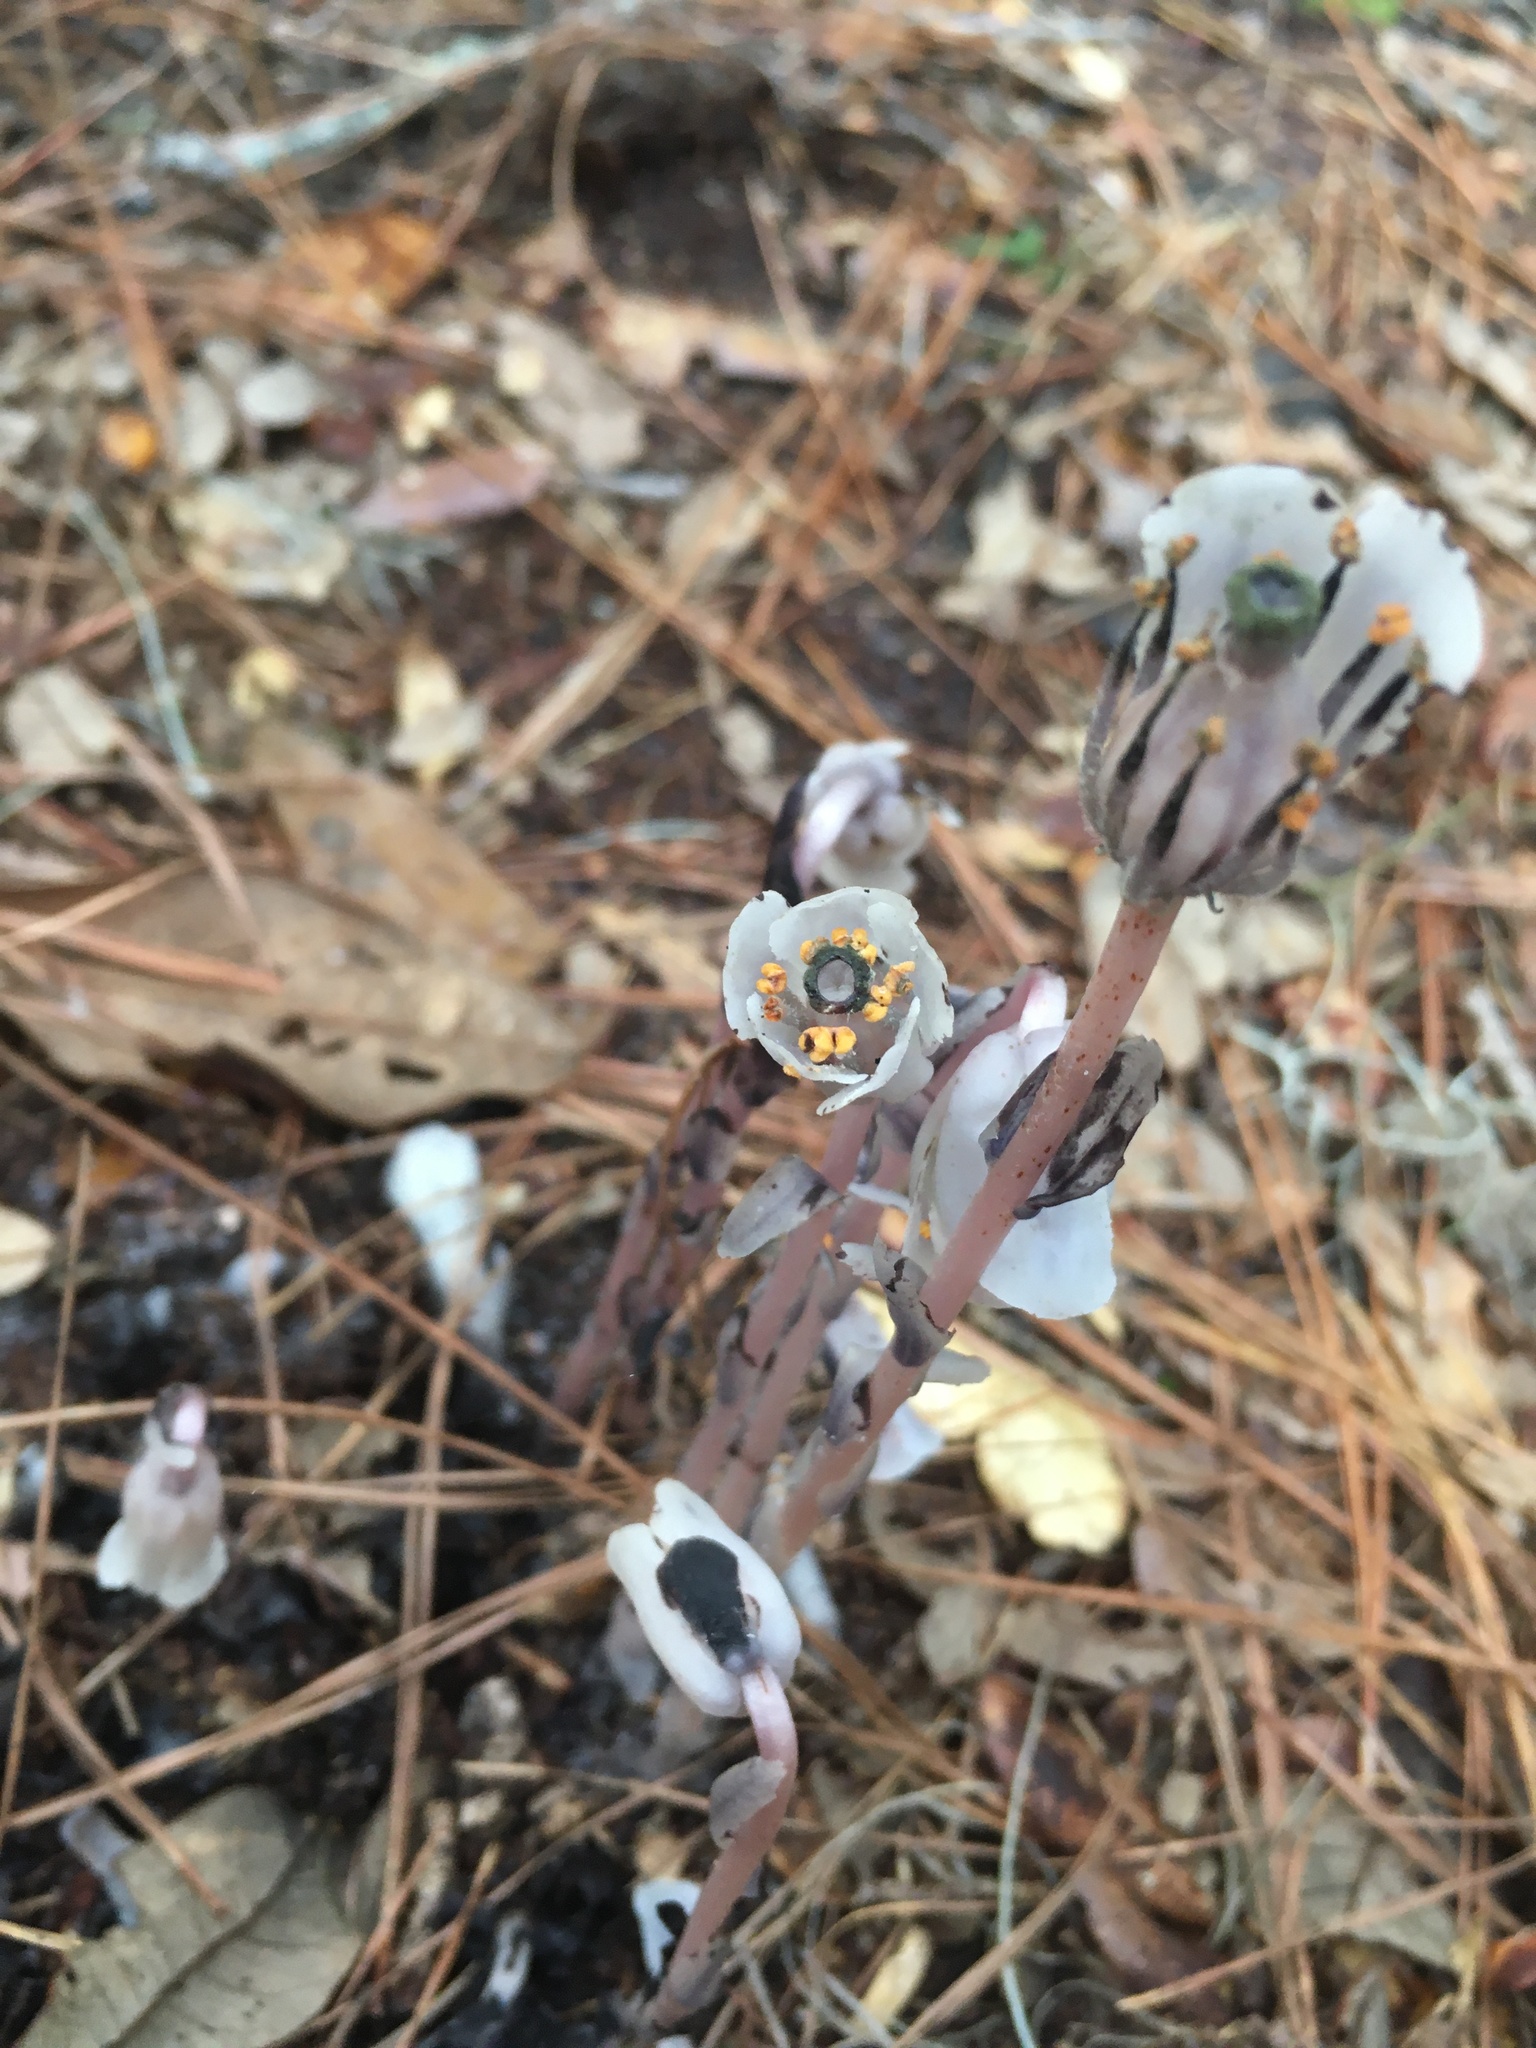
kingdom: Plantae
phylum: Tracheophyta
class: Magnoliopsida
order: Ericales
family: Ericaceae
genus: Monotropa
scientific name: Monotropa uniflora
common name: Convulsion root
